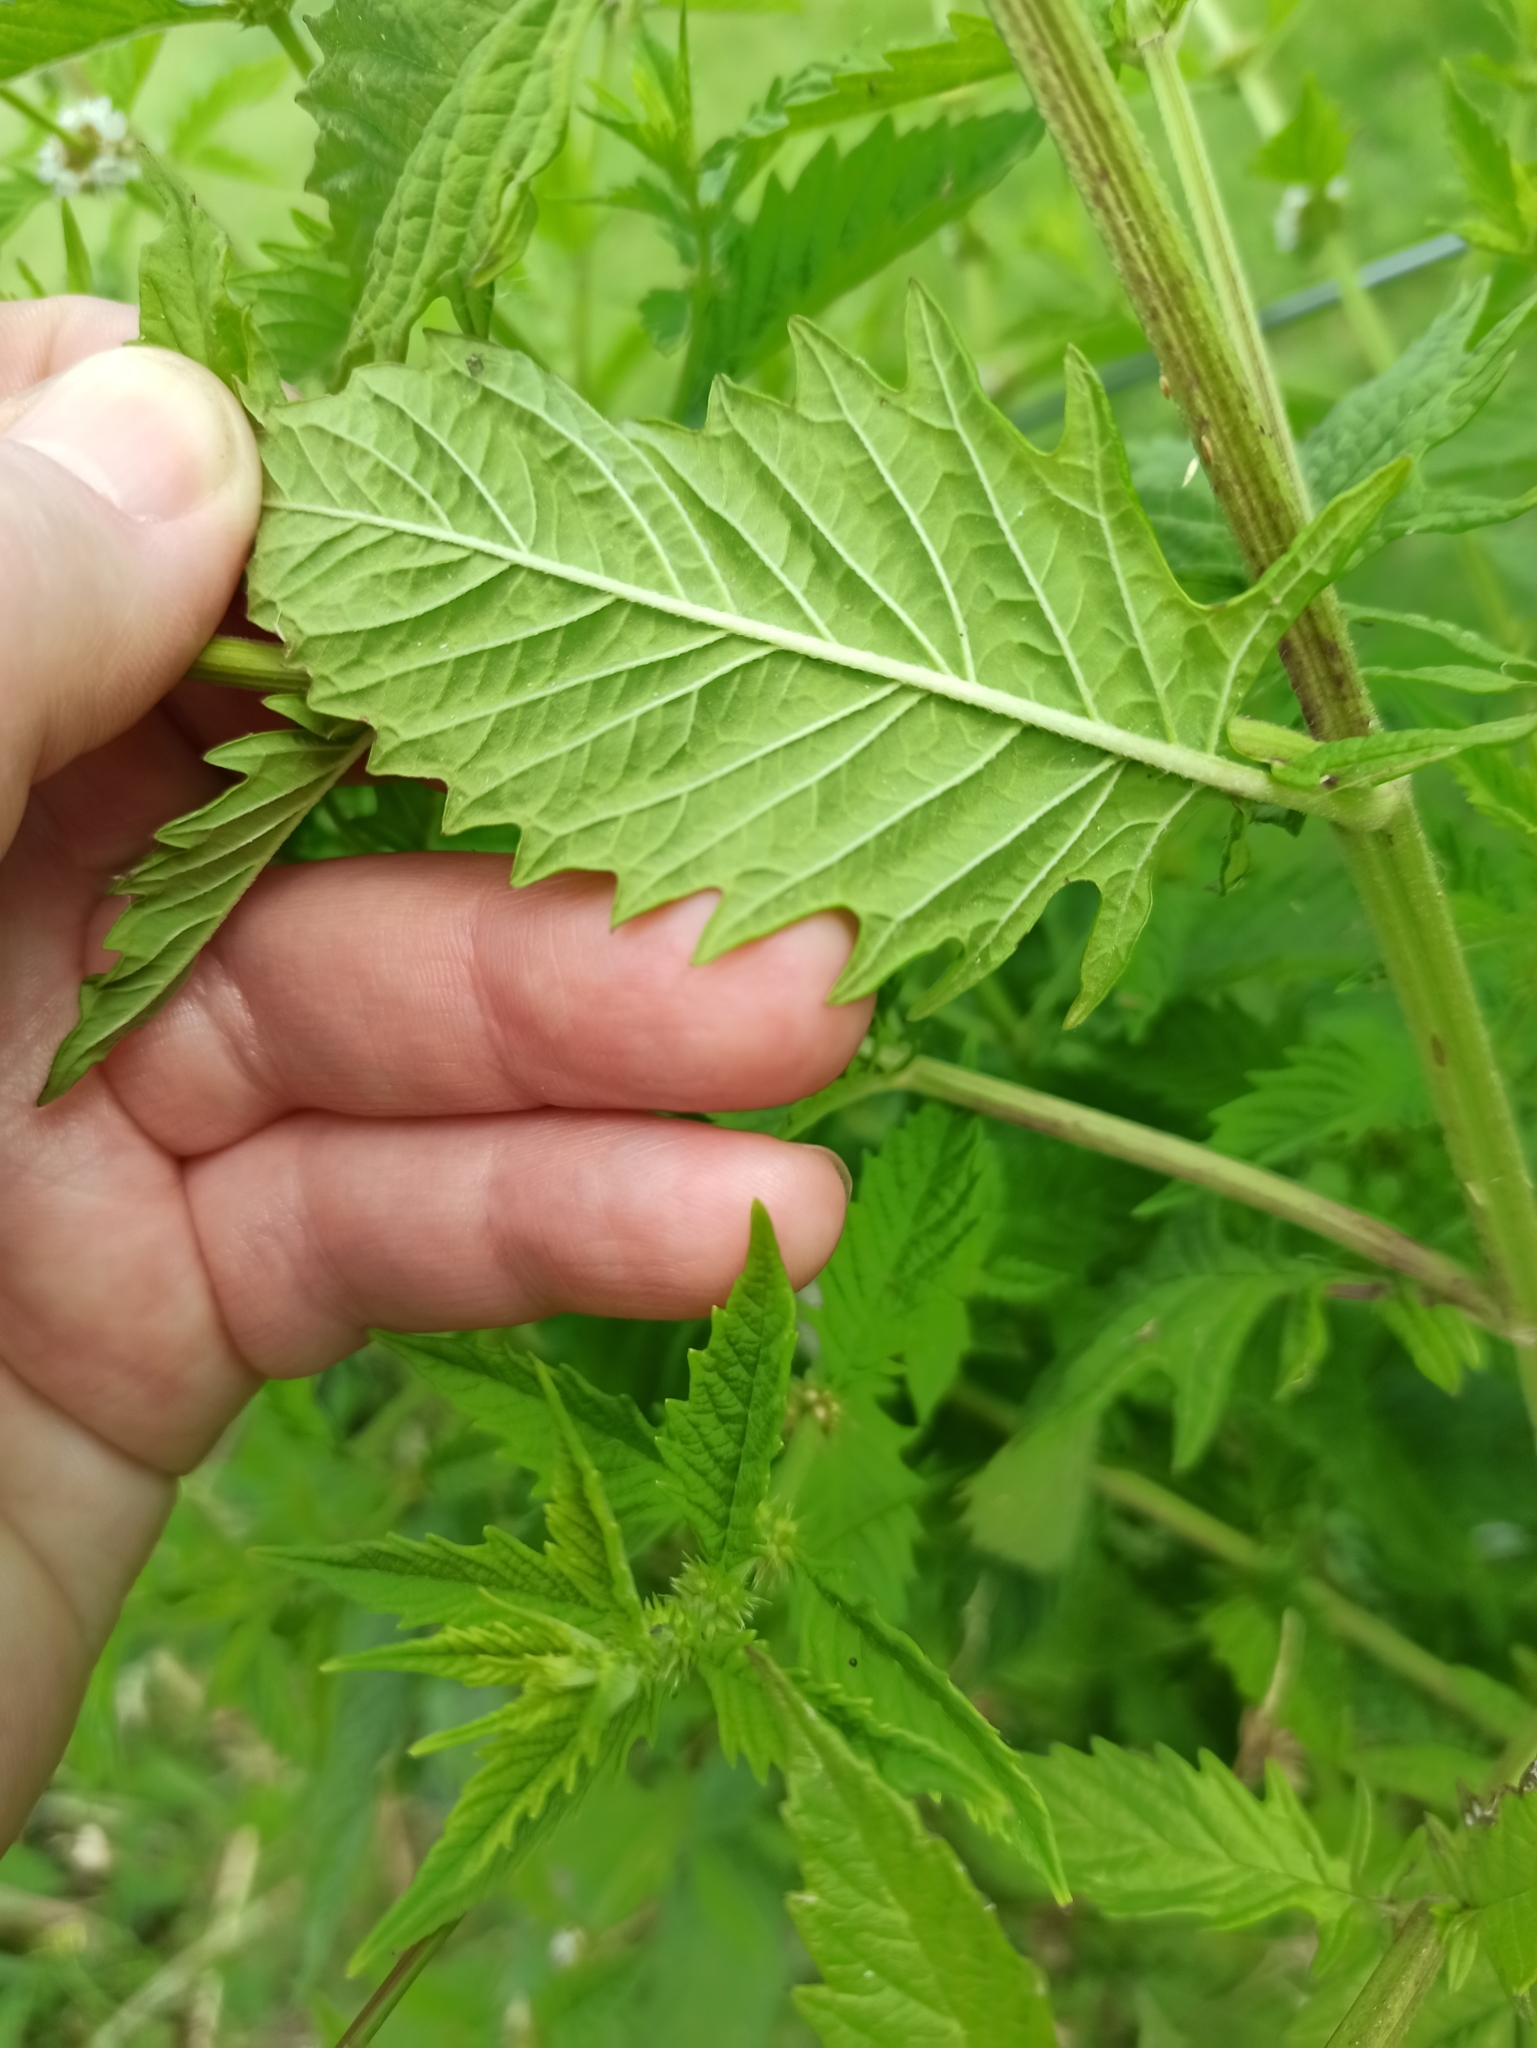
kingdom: Plantae
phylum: Tracheophyta
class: Magnoliopsida
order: Lamiales
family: Lamiaceae
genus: Lycopus
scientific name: Lycopus europaeus
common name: European bugleweed
